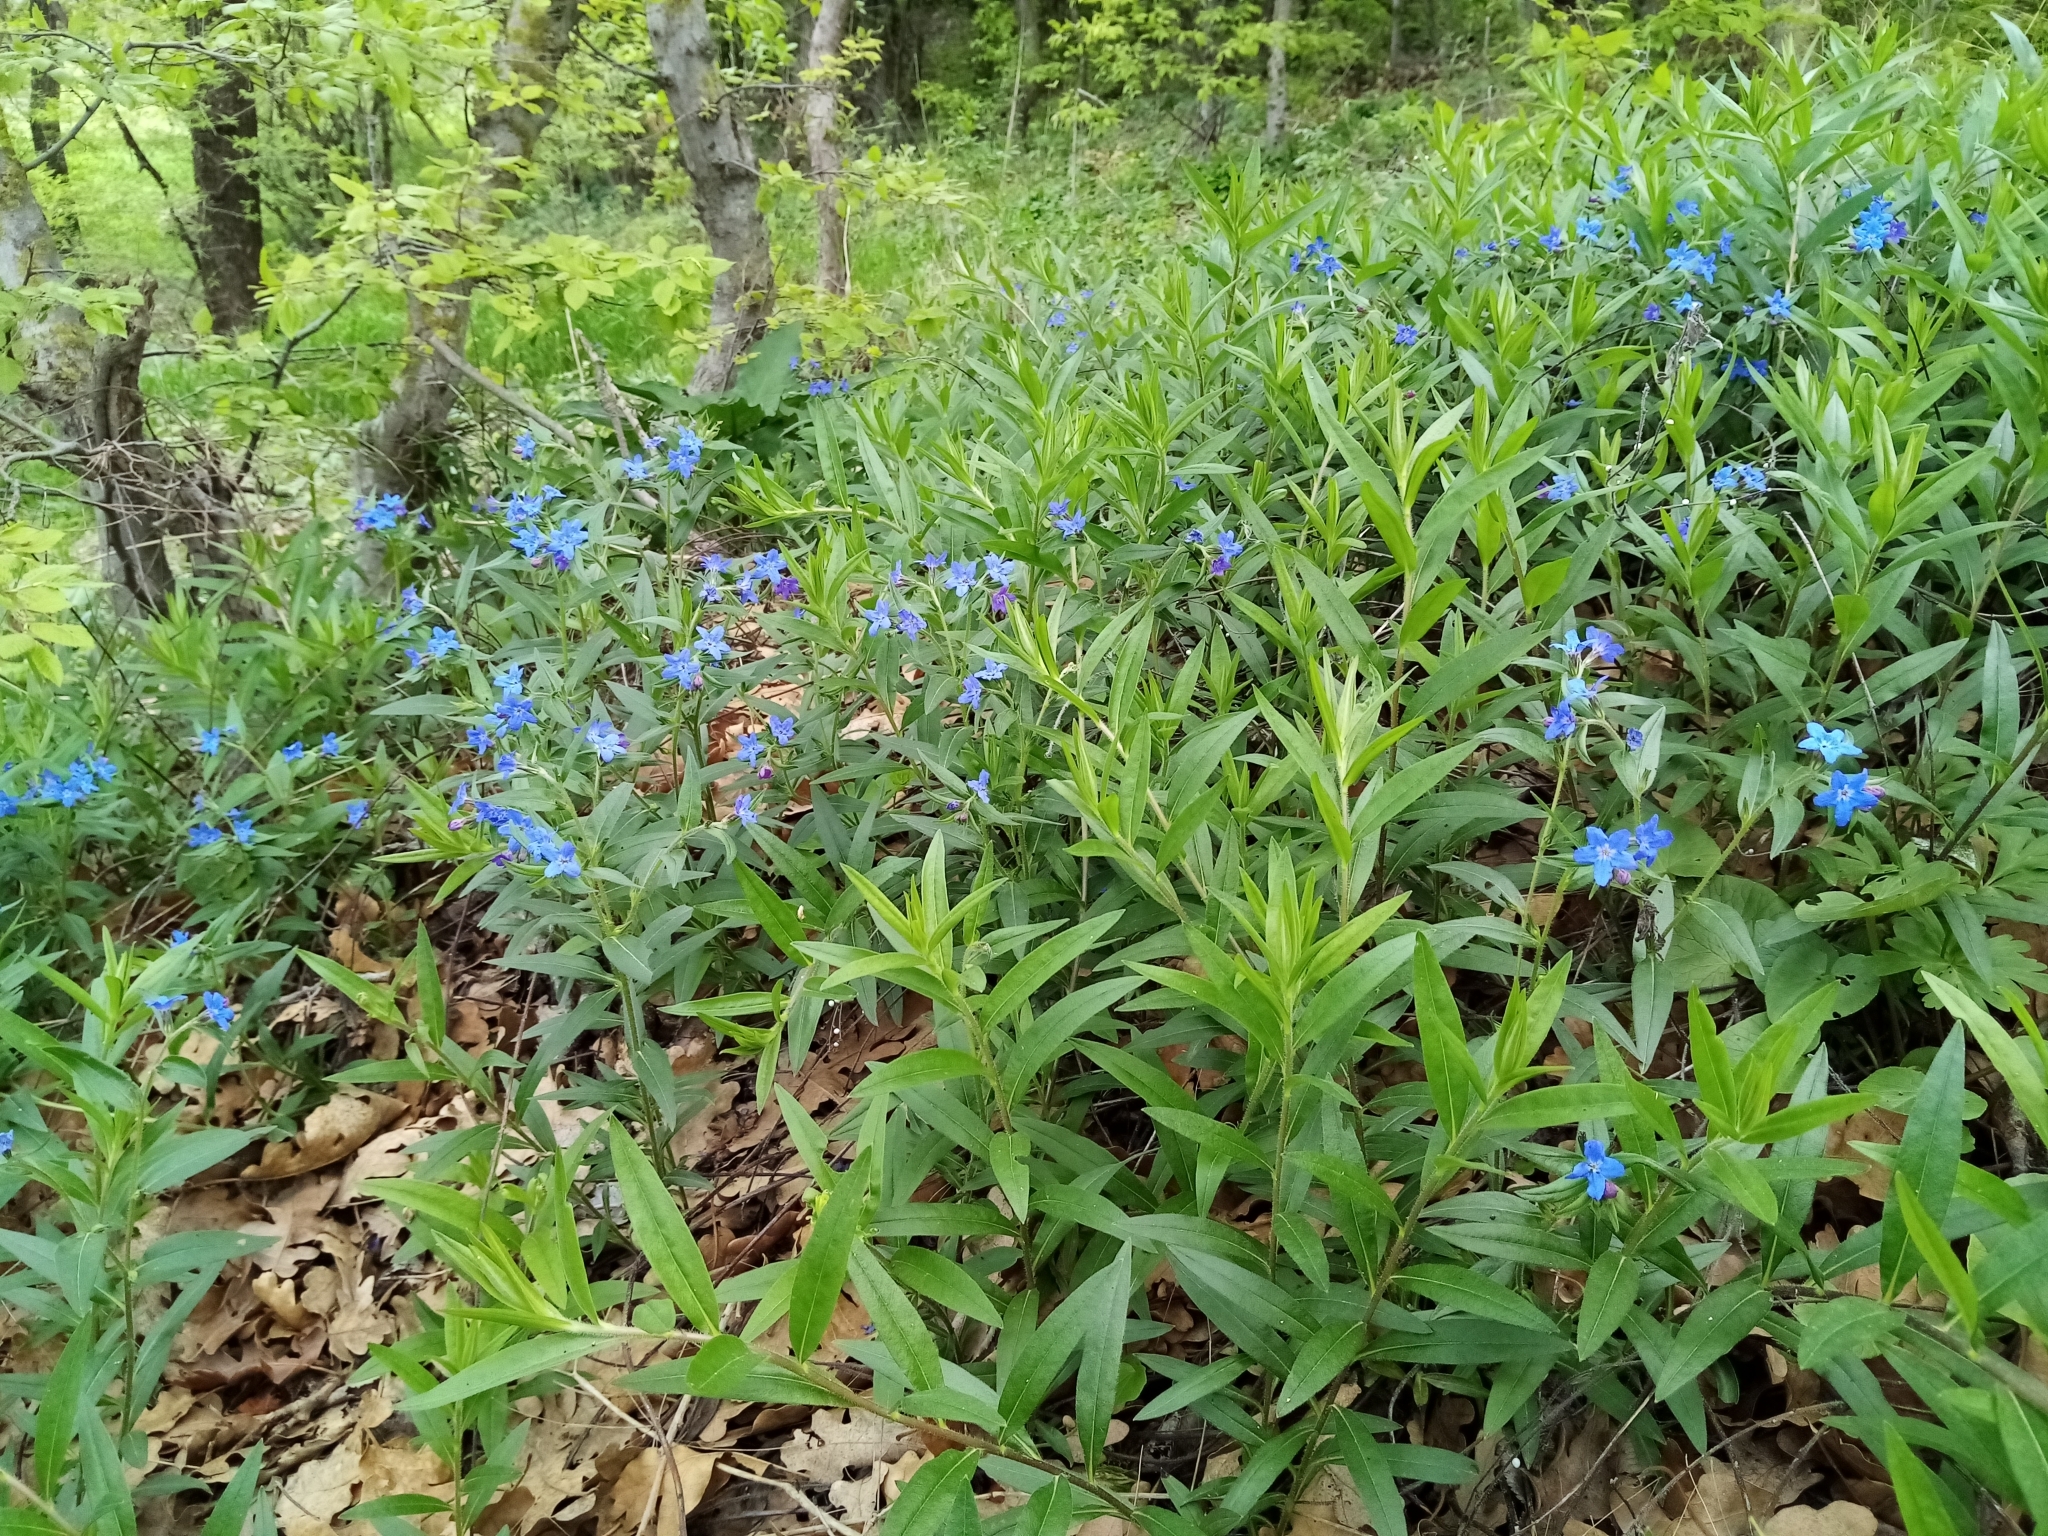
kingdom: Plantae
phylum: Tracheophyta
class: Magnoliopsida
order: Boraginales
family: Boraginaceae
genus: Aegonychon
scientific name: Aegonychon purpurocaeruleum
